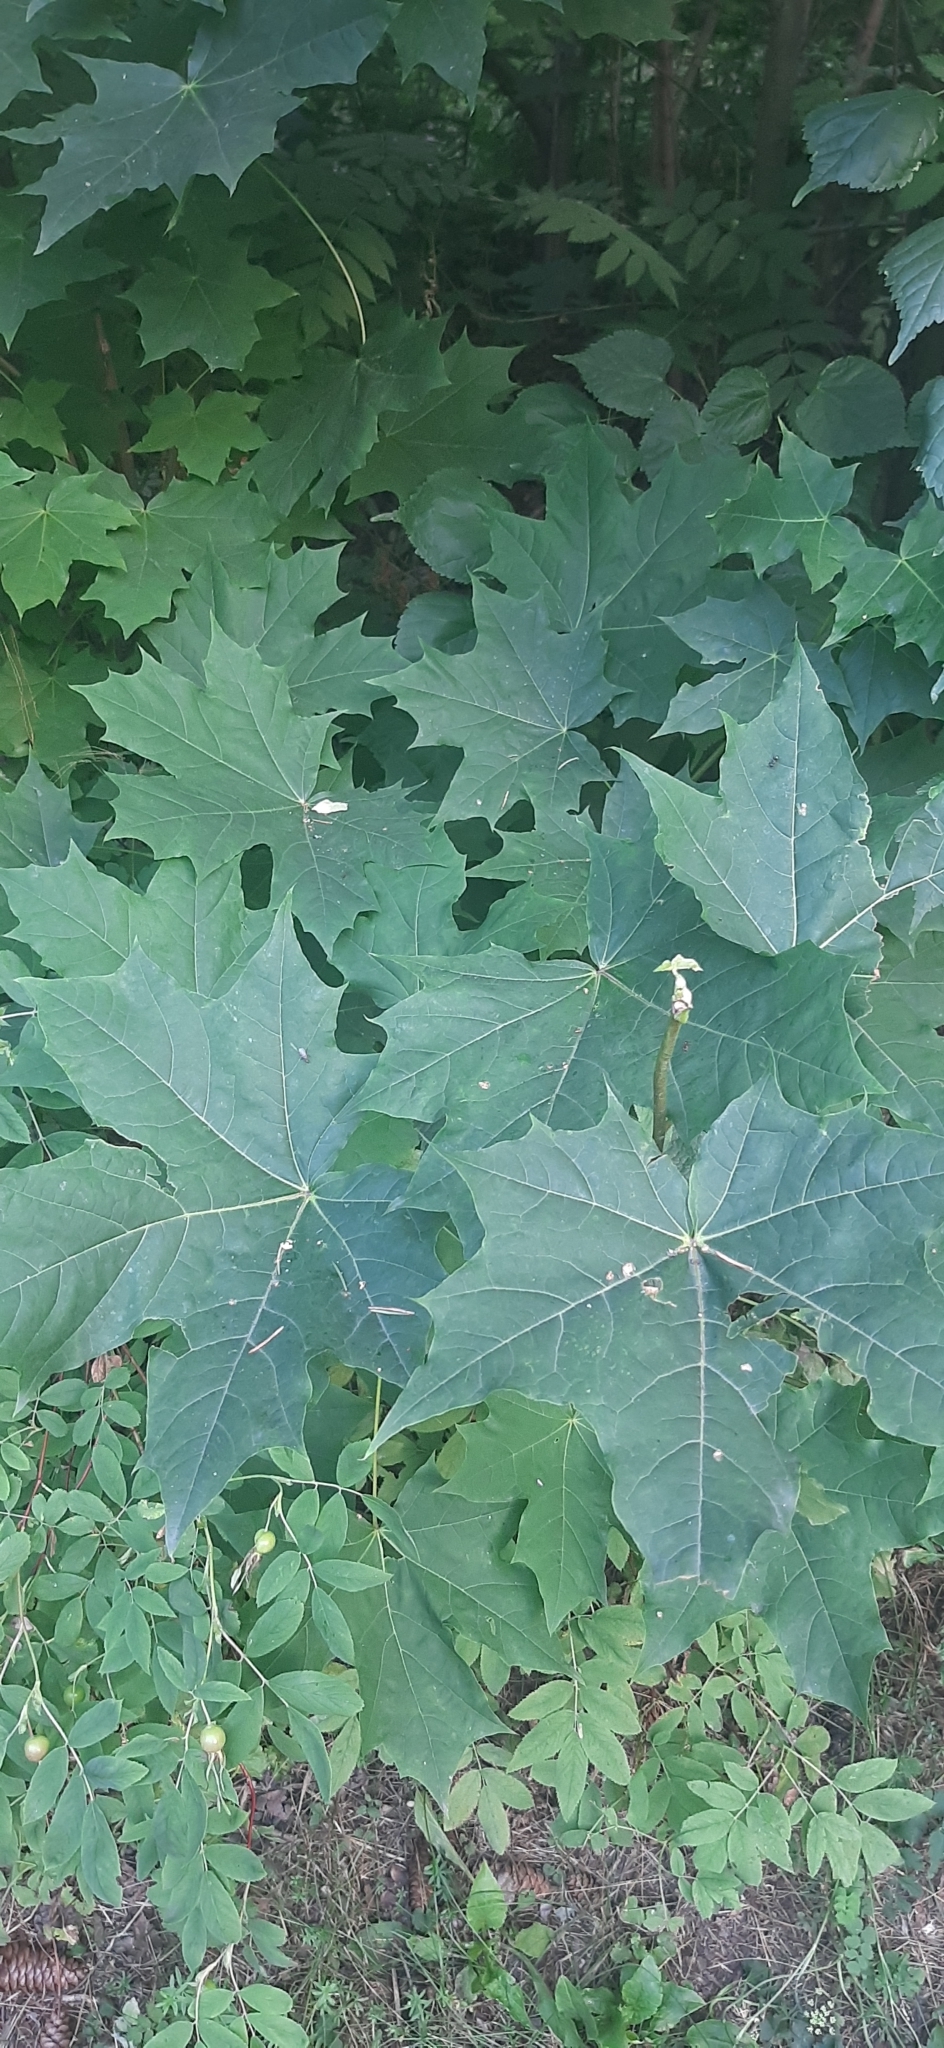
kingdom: Plantae
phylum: Tracheophyta
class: Magnoliopsida
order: Sapindales
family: Sapindaceae
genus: Acer
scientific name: Acer platanoides
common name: Norway maple
